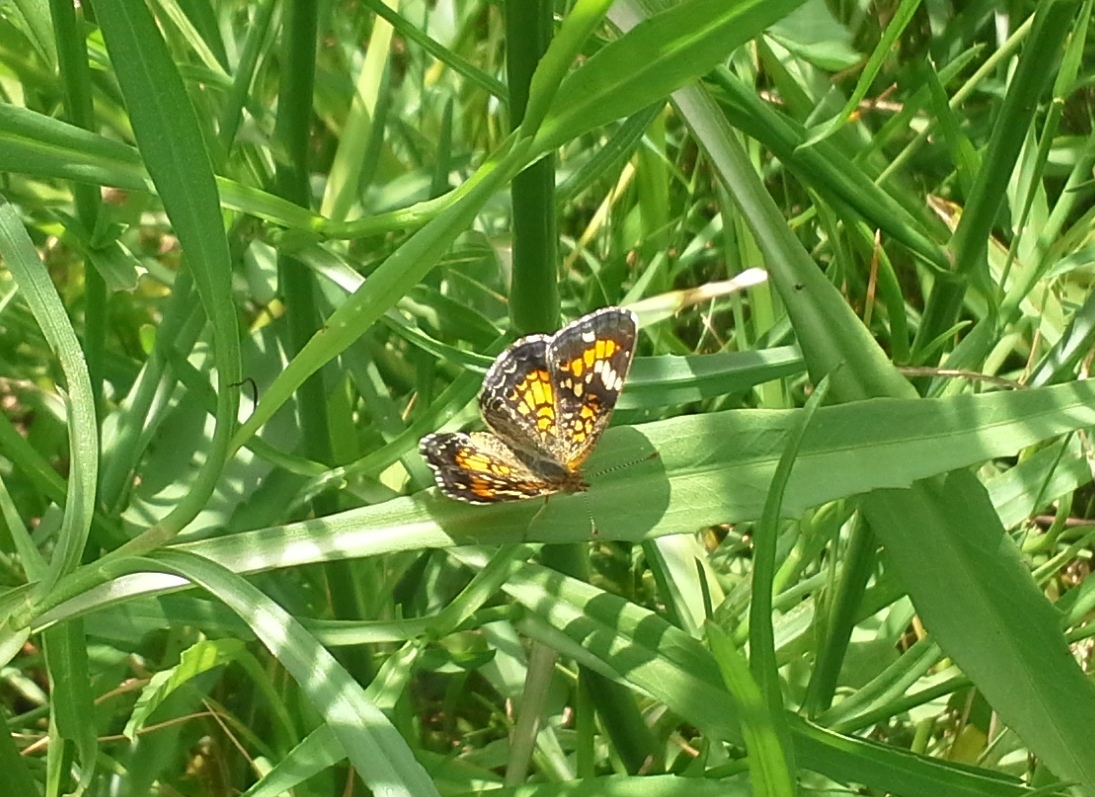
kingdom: Animalia
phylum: Arthropoda
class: Insecta
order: Lepidoptera
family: Nymphalidae
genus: Phyciodes
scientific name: Phyciodes phaon
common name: Phaon crescent
